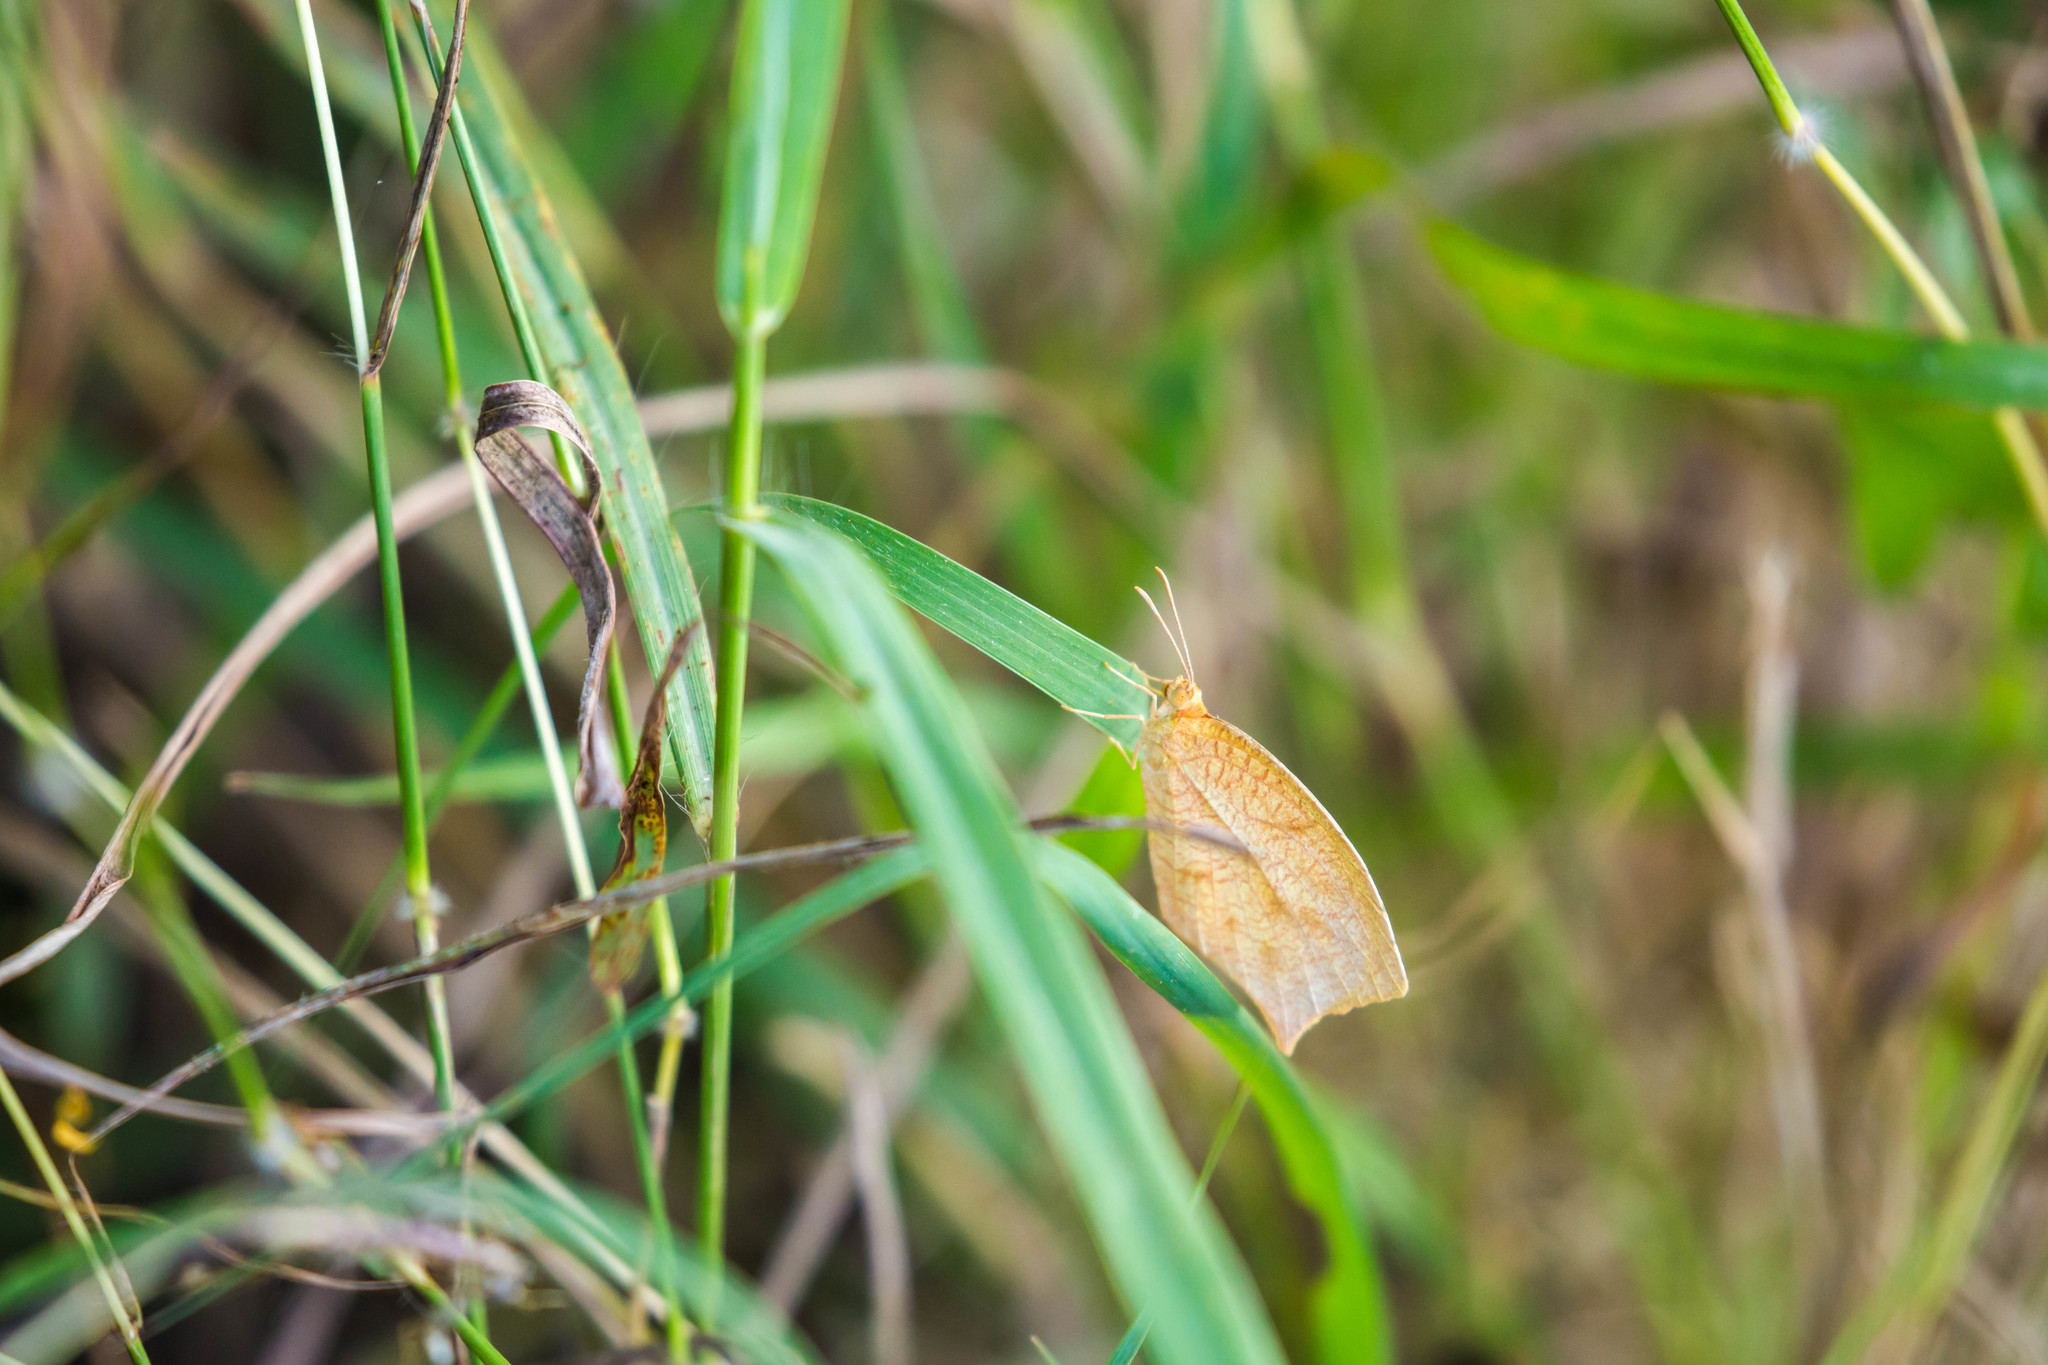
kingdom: Animalia
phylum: Arthropoda
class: Insecta
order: Lepidoptera
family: Pieridae
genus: Pyrisitia
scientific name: Pyrisitia proterpia
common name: Tailed orange
